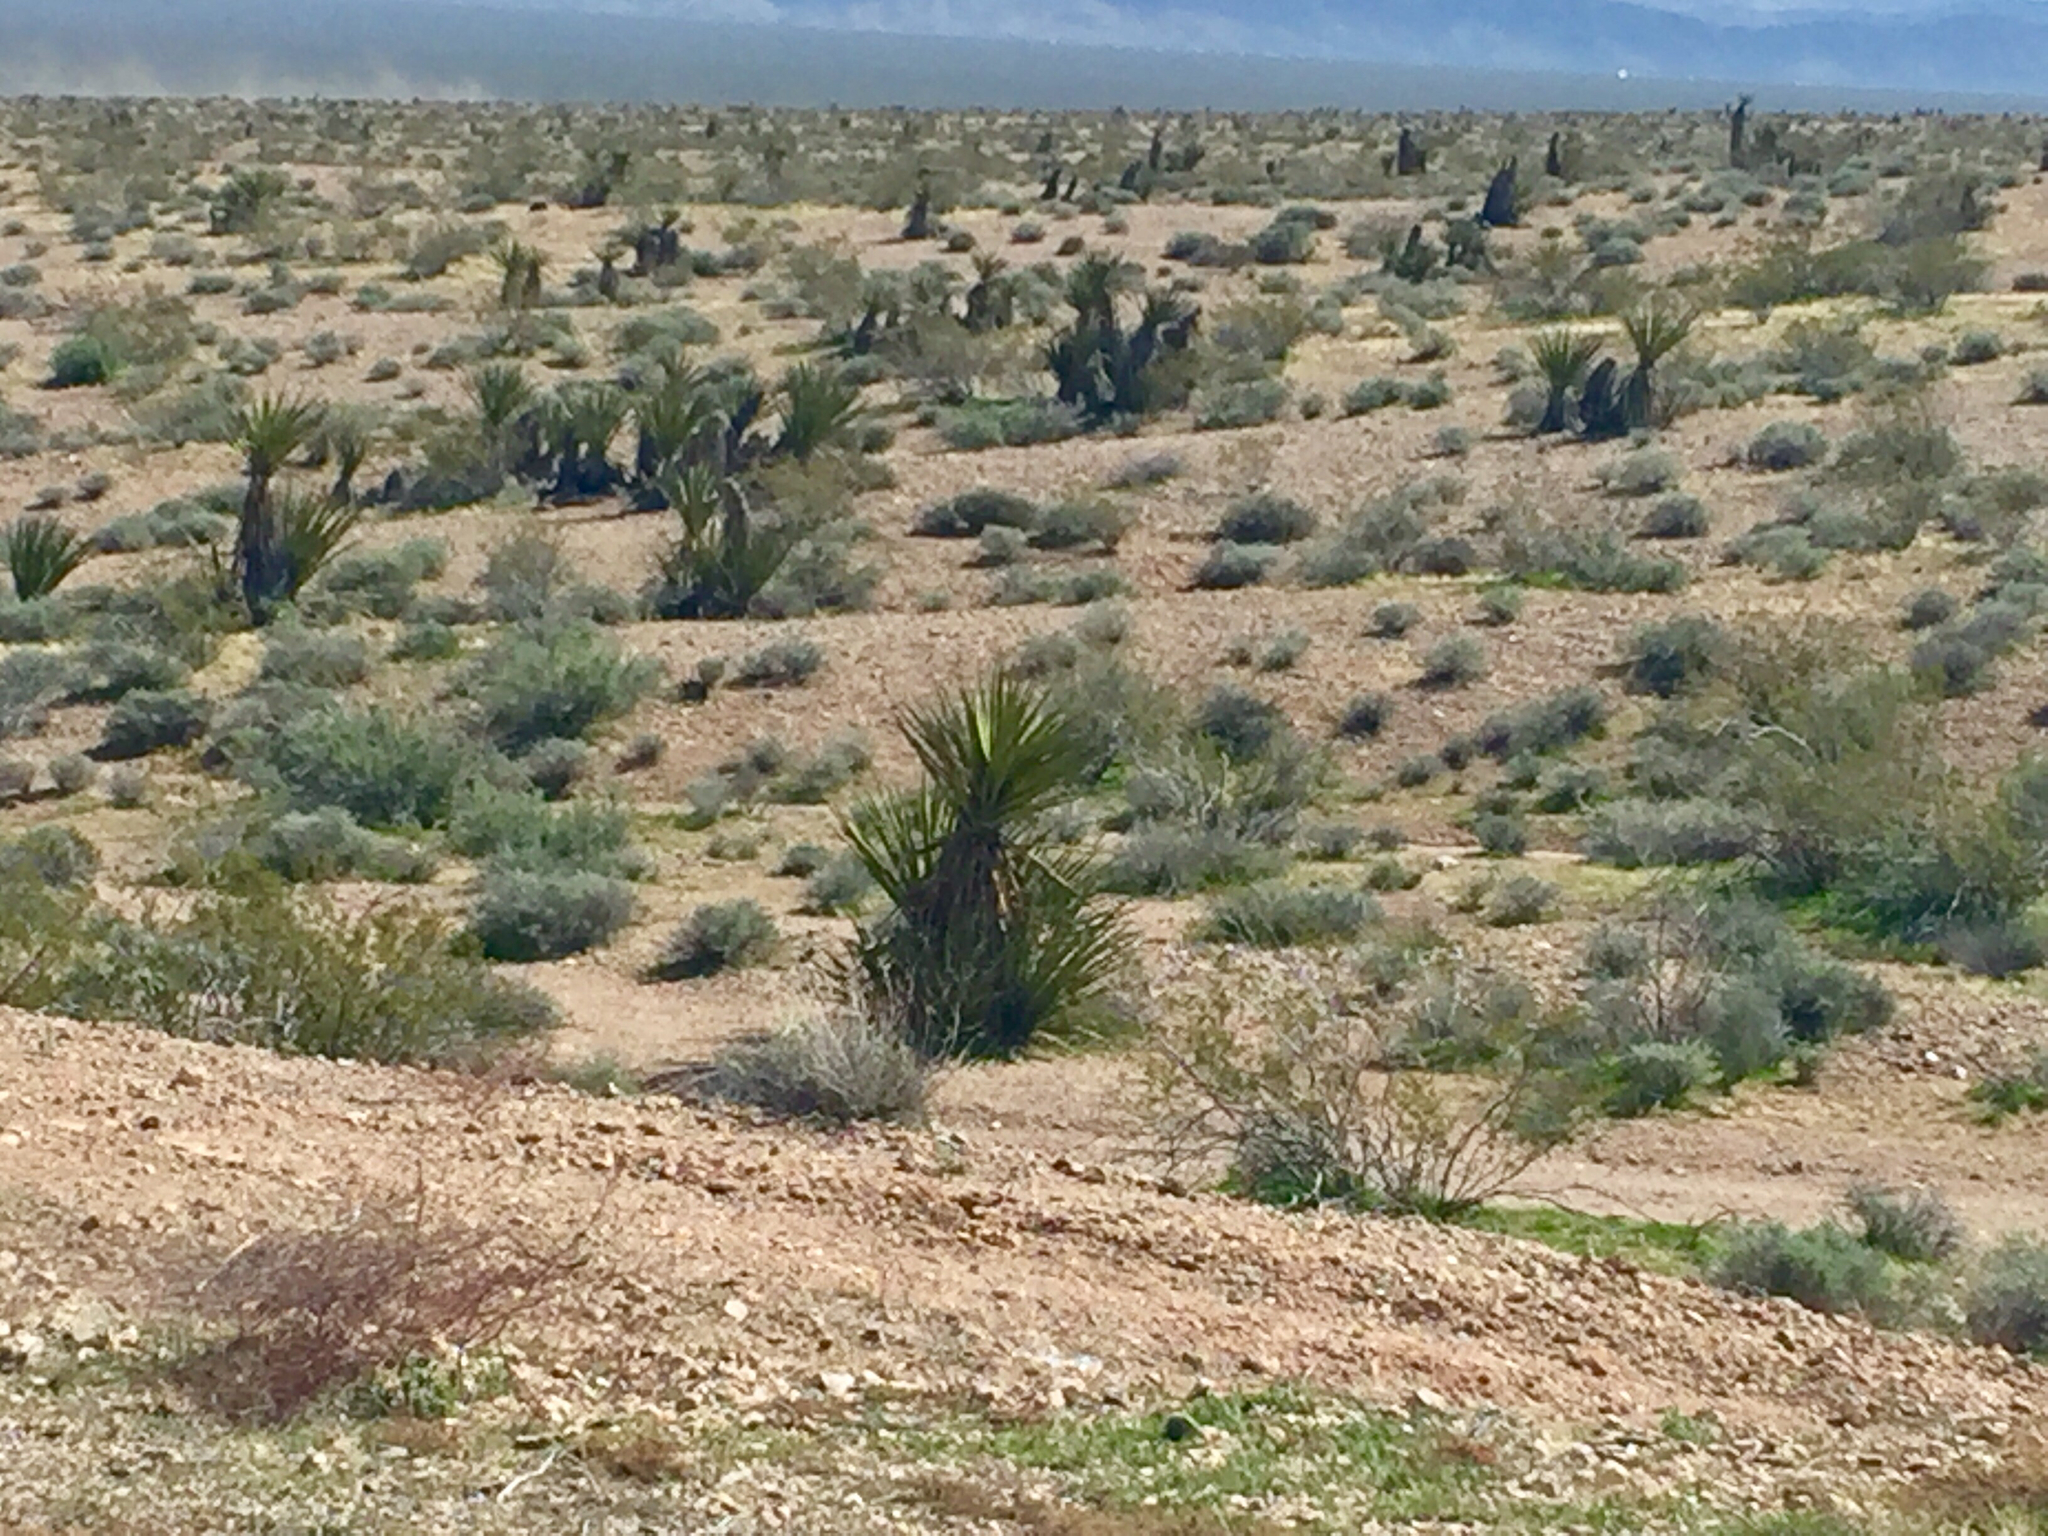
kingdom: Plantae
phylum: Tracheophyta
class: Liliopsida
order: Asparagales
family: Asparagaceae
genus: Yucca
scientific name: Yucca schidigera
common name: Mojave yucca
